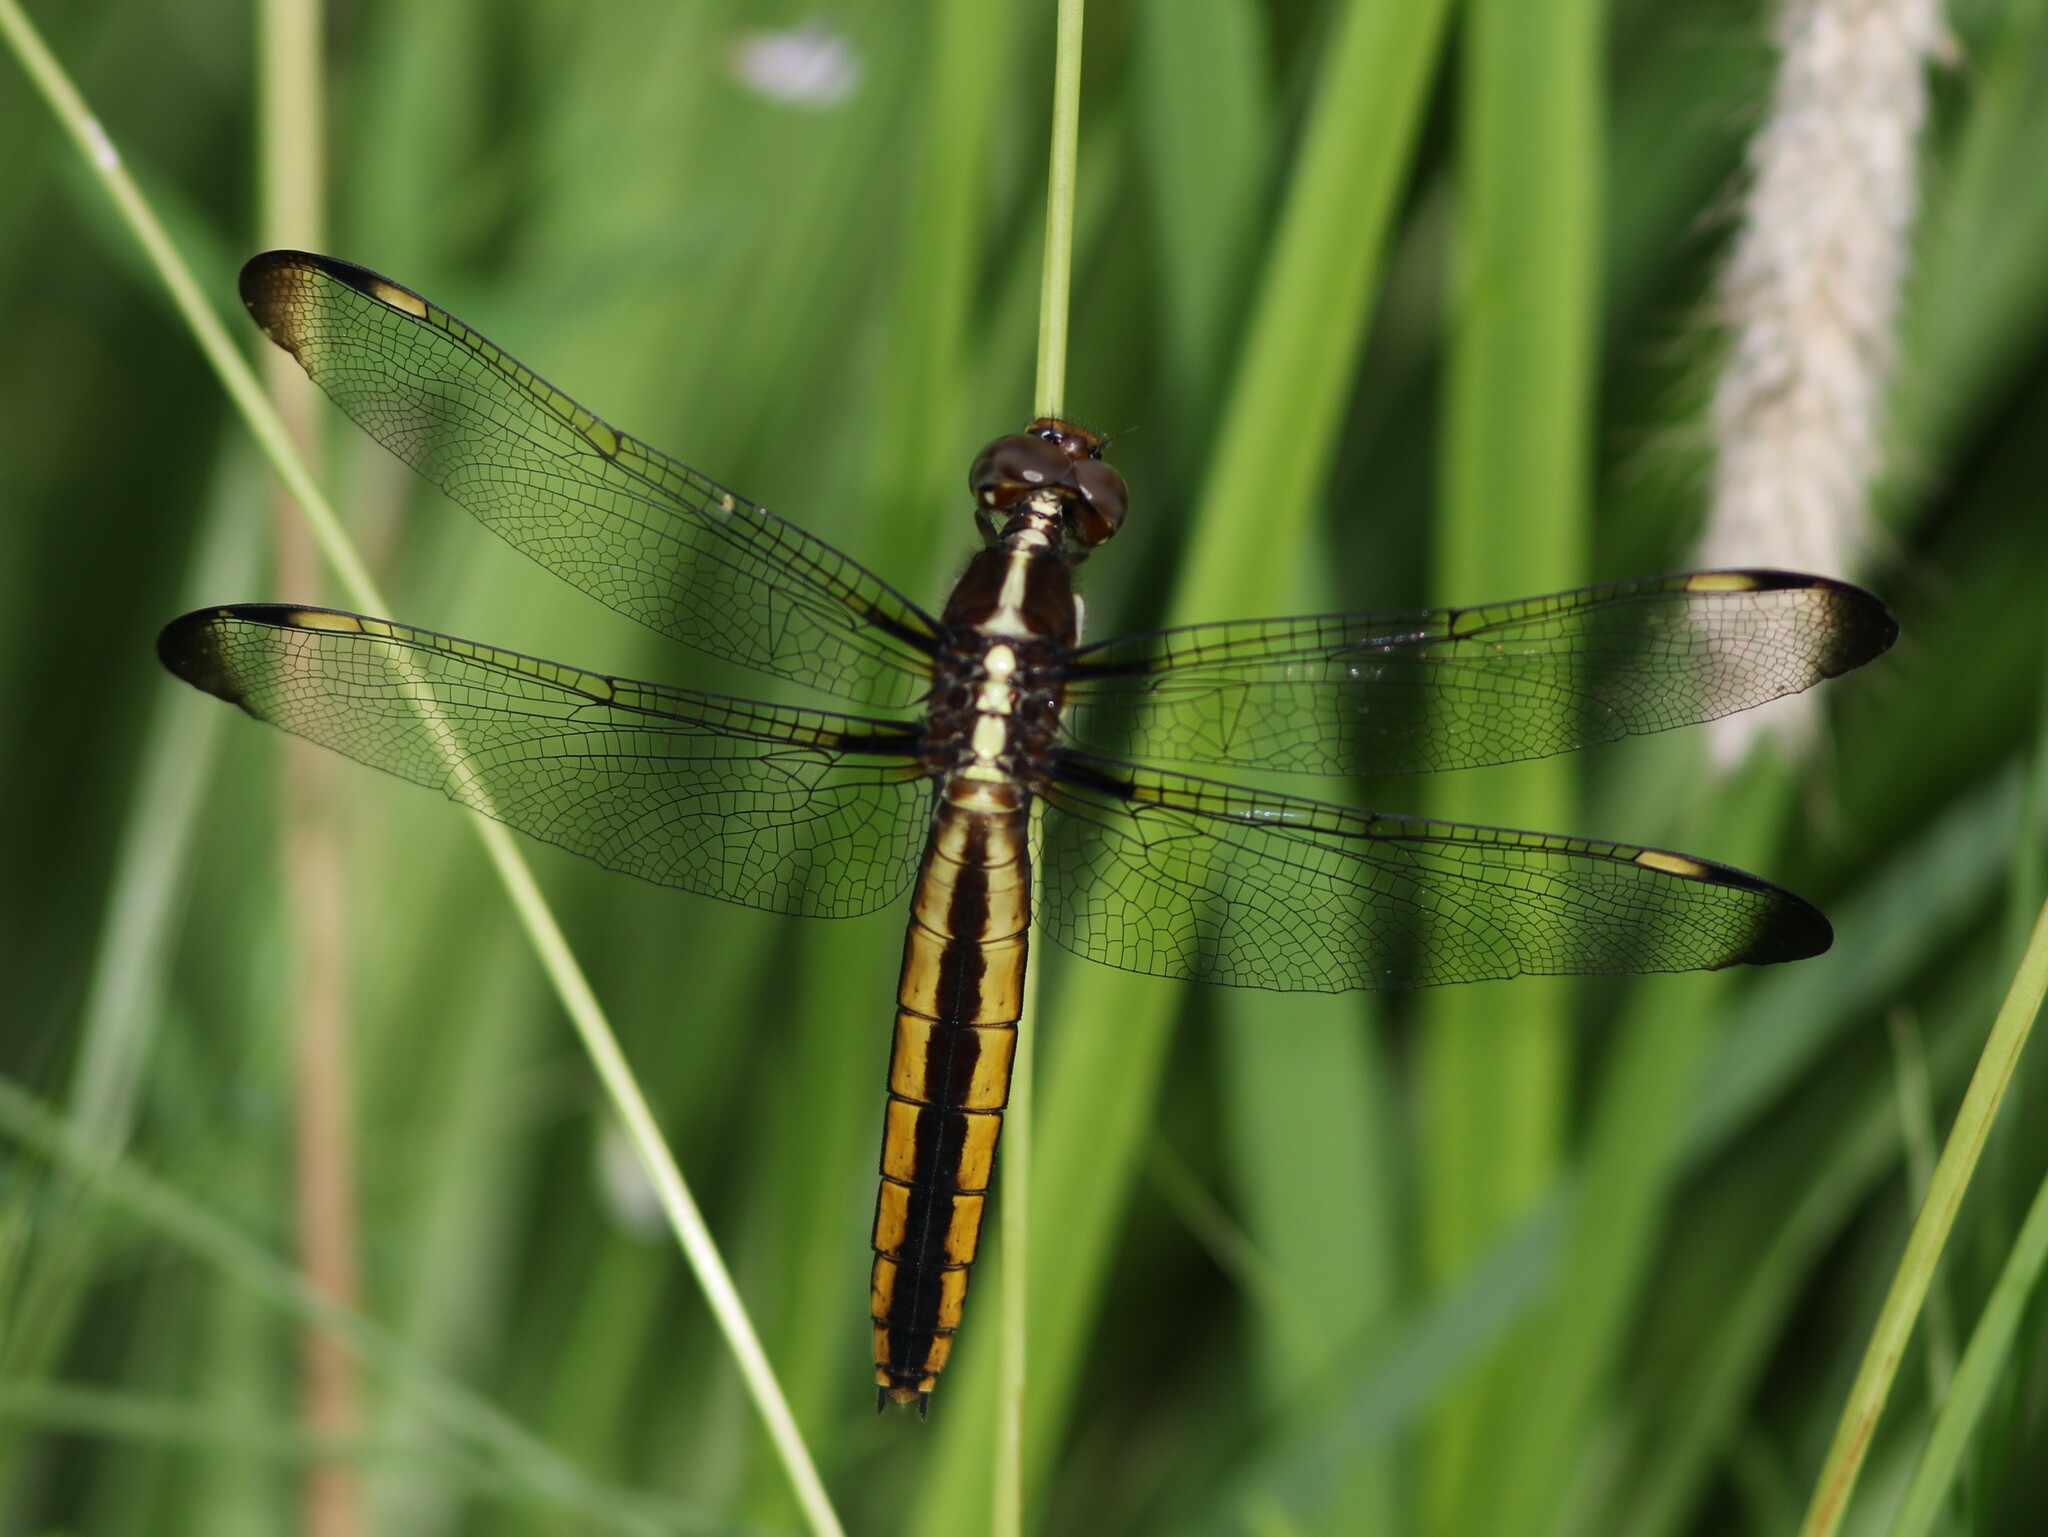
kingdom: Animalia
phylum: Arthropoda
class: Insecta
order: Odonata
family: Libellulidae
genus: Libellula
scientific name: Libellula cyanea
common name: Spangled skimmer
